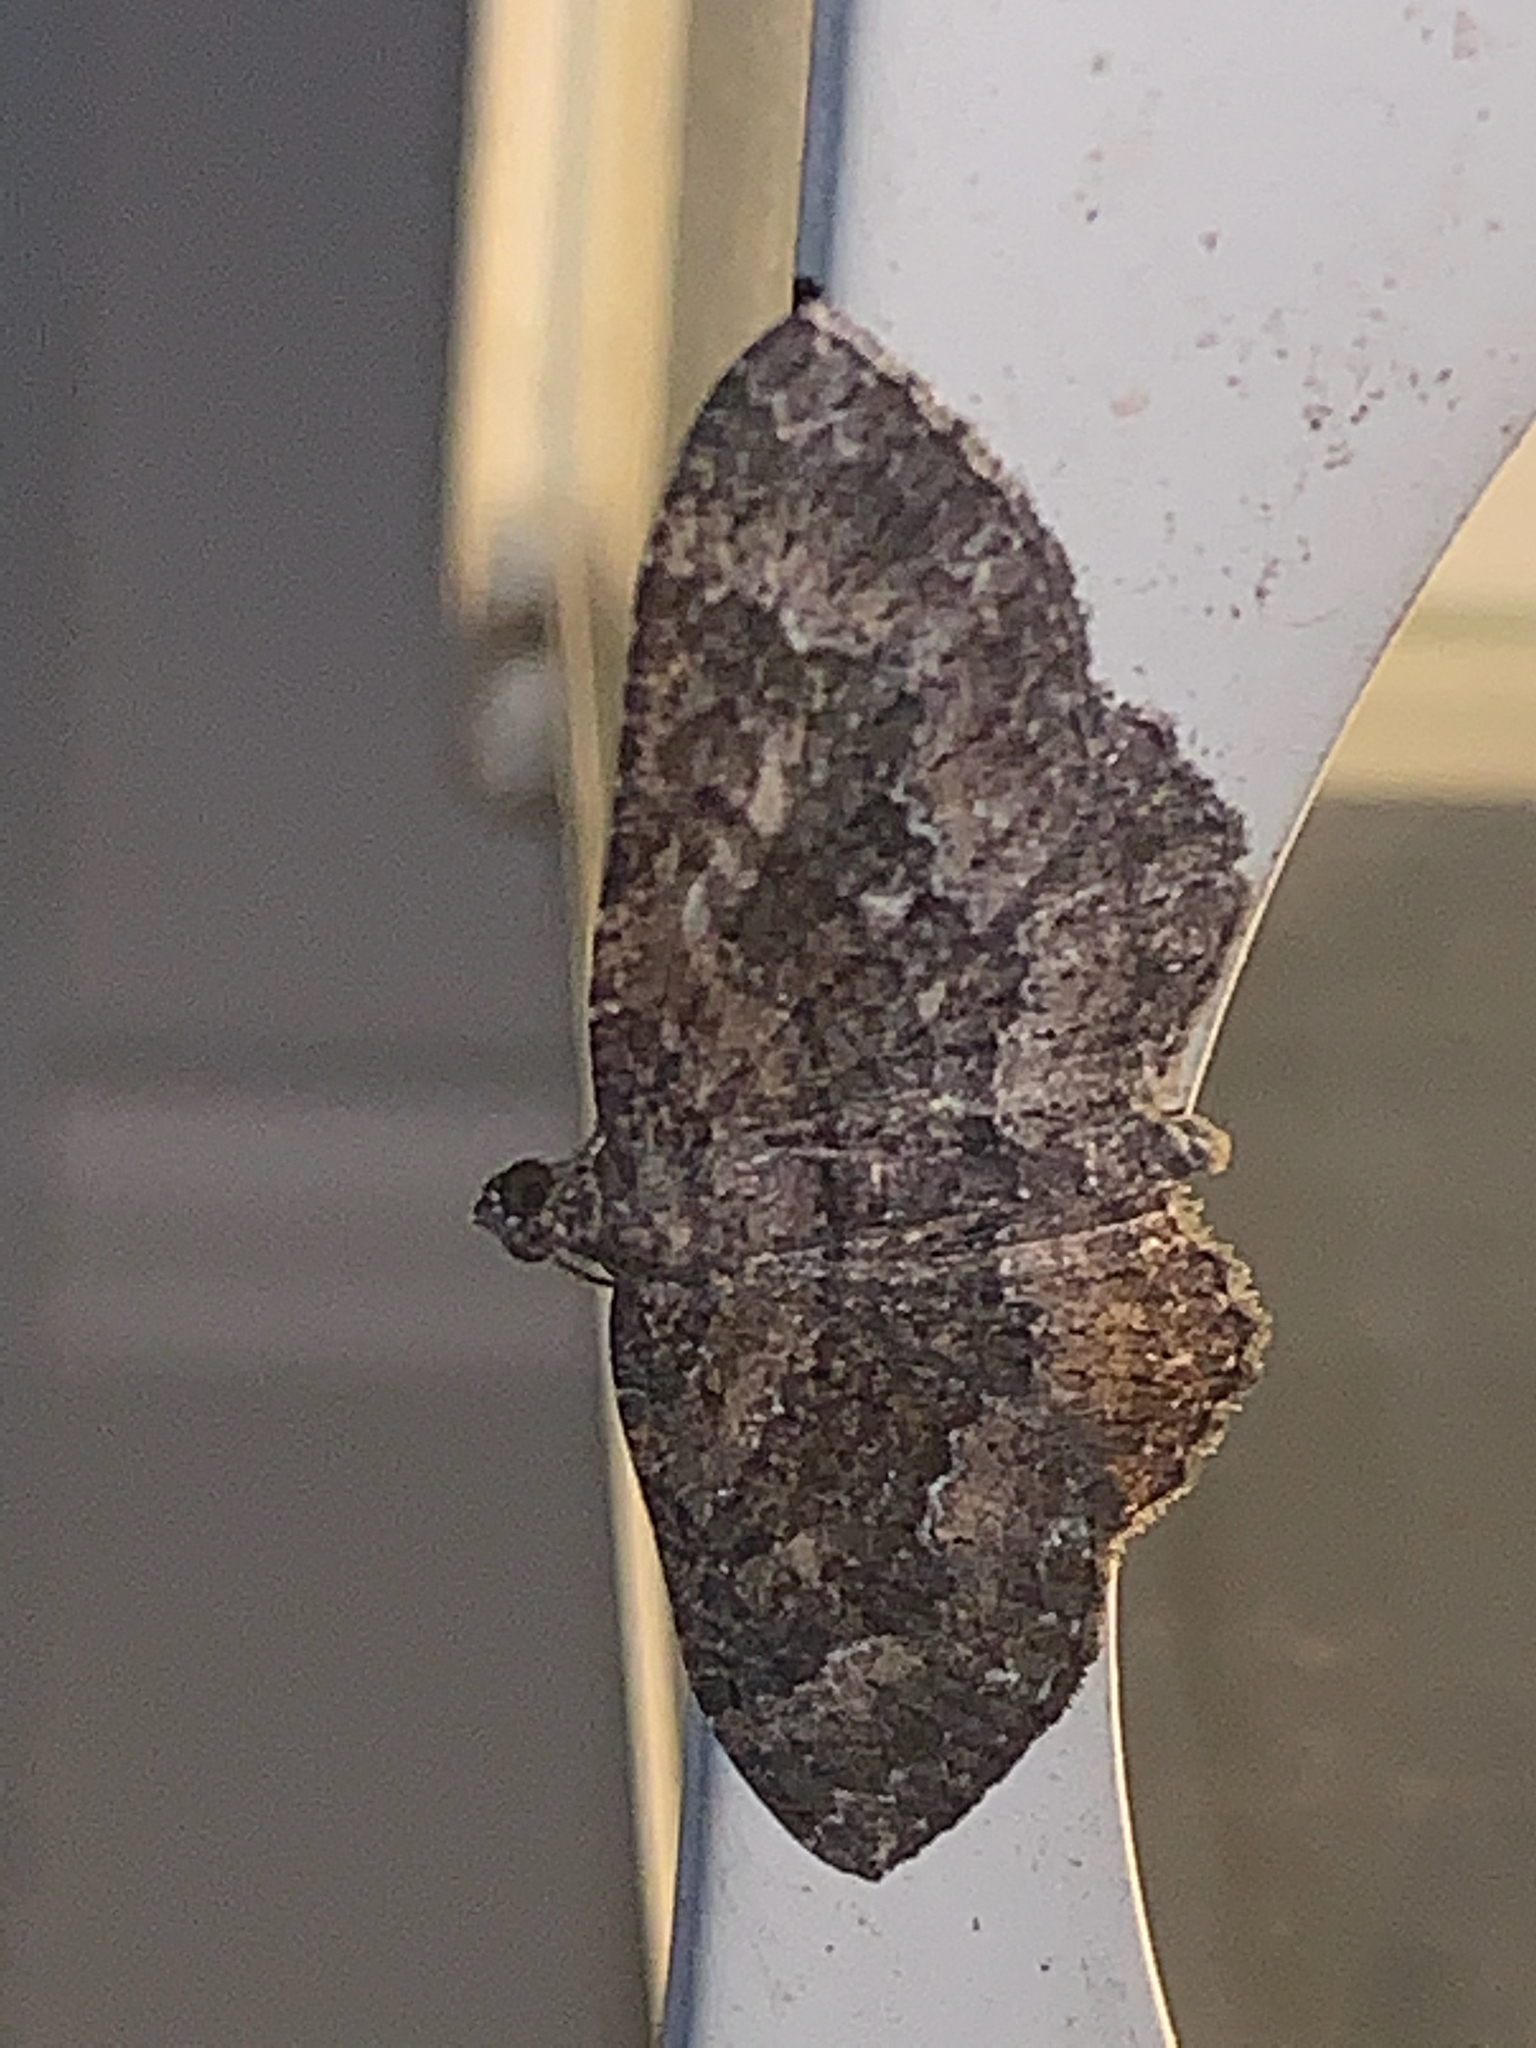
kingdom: Animalia
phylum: Arthropoda
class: Insecta
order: Lepidoptera
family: Geometridae
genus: Disclisioprocta
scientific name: Disclisioprocta stellata
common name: Somber carpet
